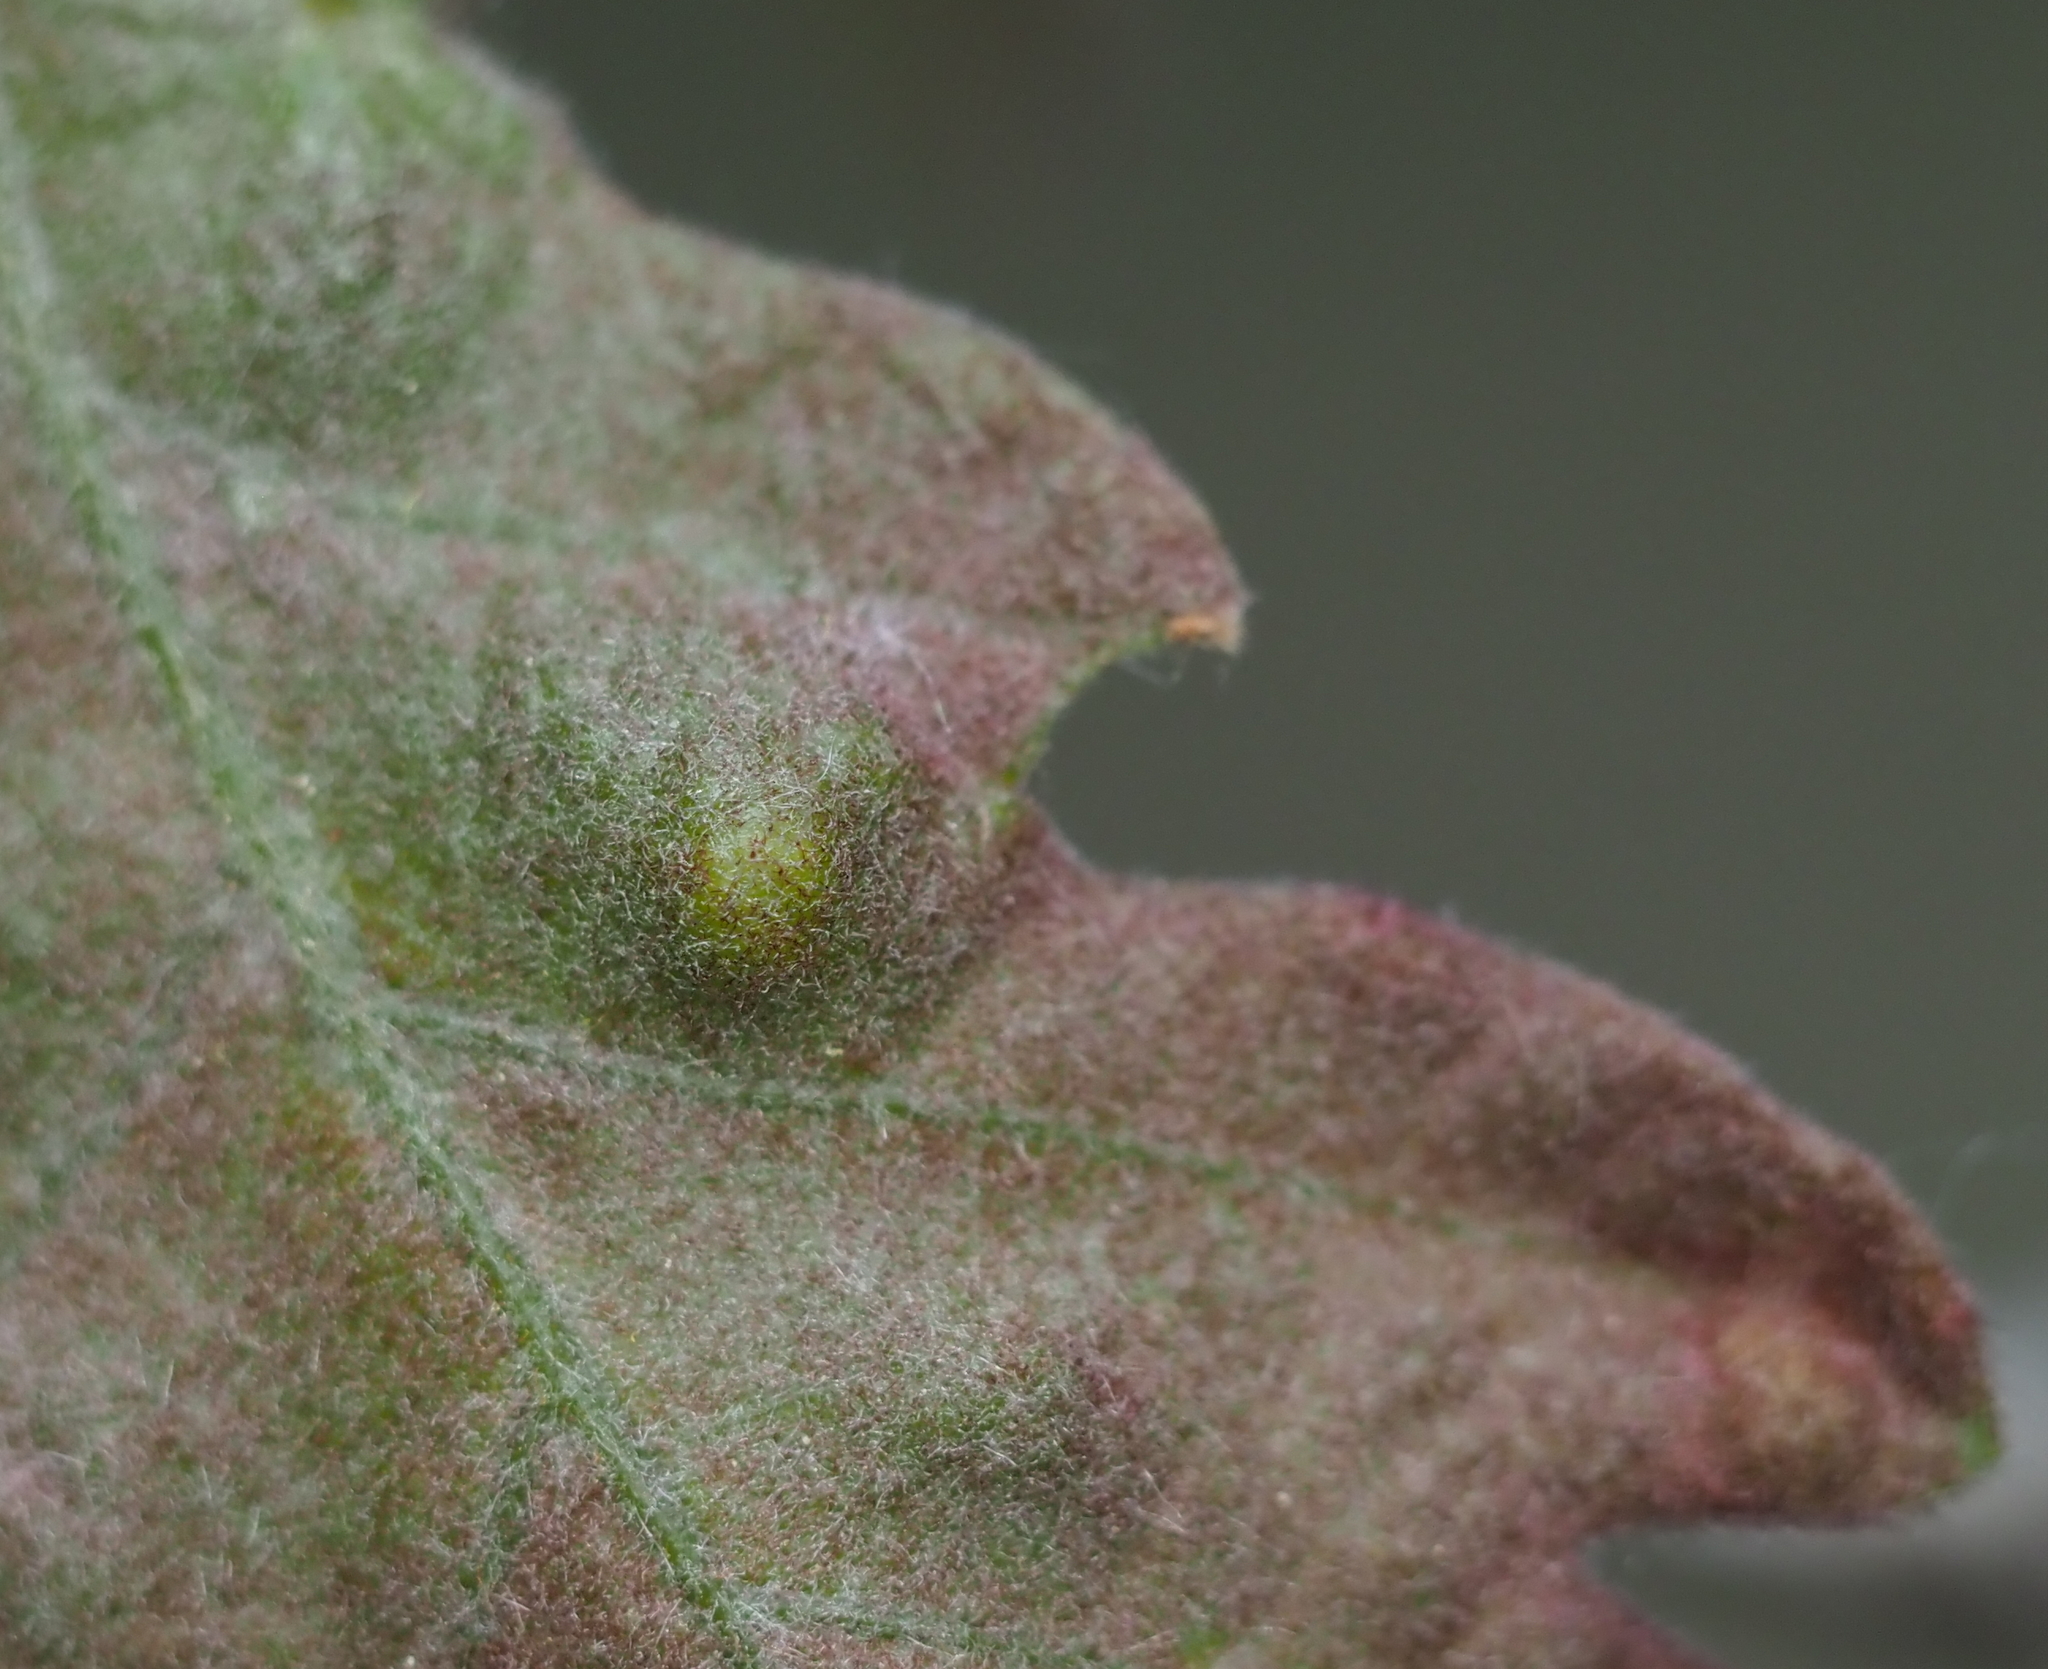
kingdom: Animalia
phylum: Arthropoda
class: Arachnida
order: Trombidiformes
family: Eriophyidae
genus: Aceria
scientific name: Aceria
